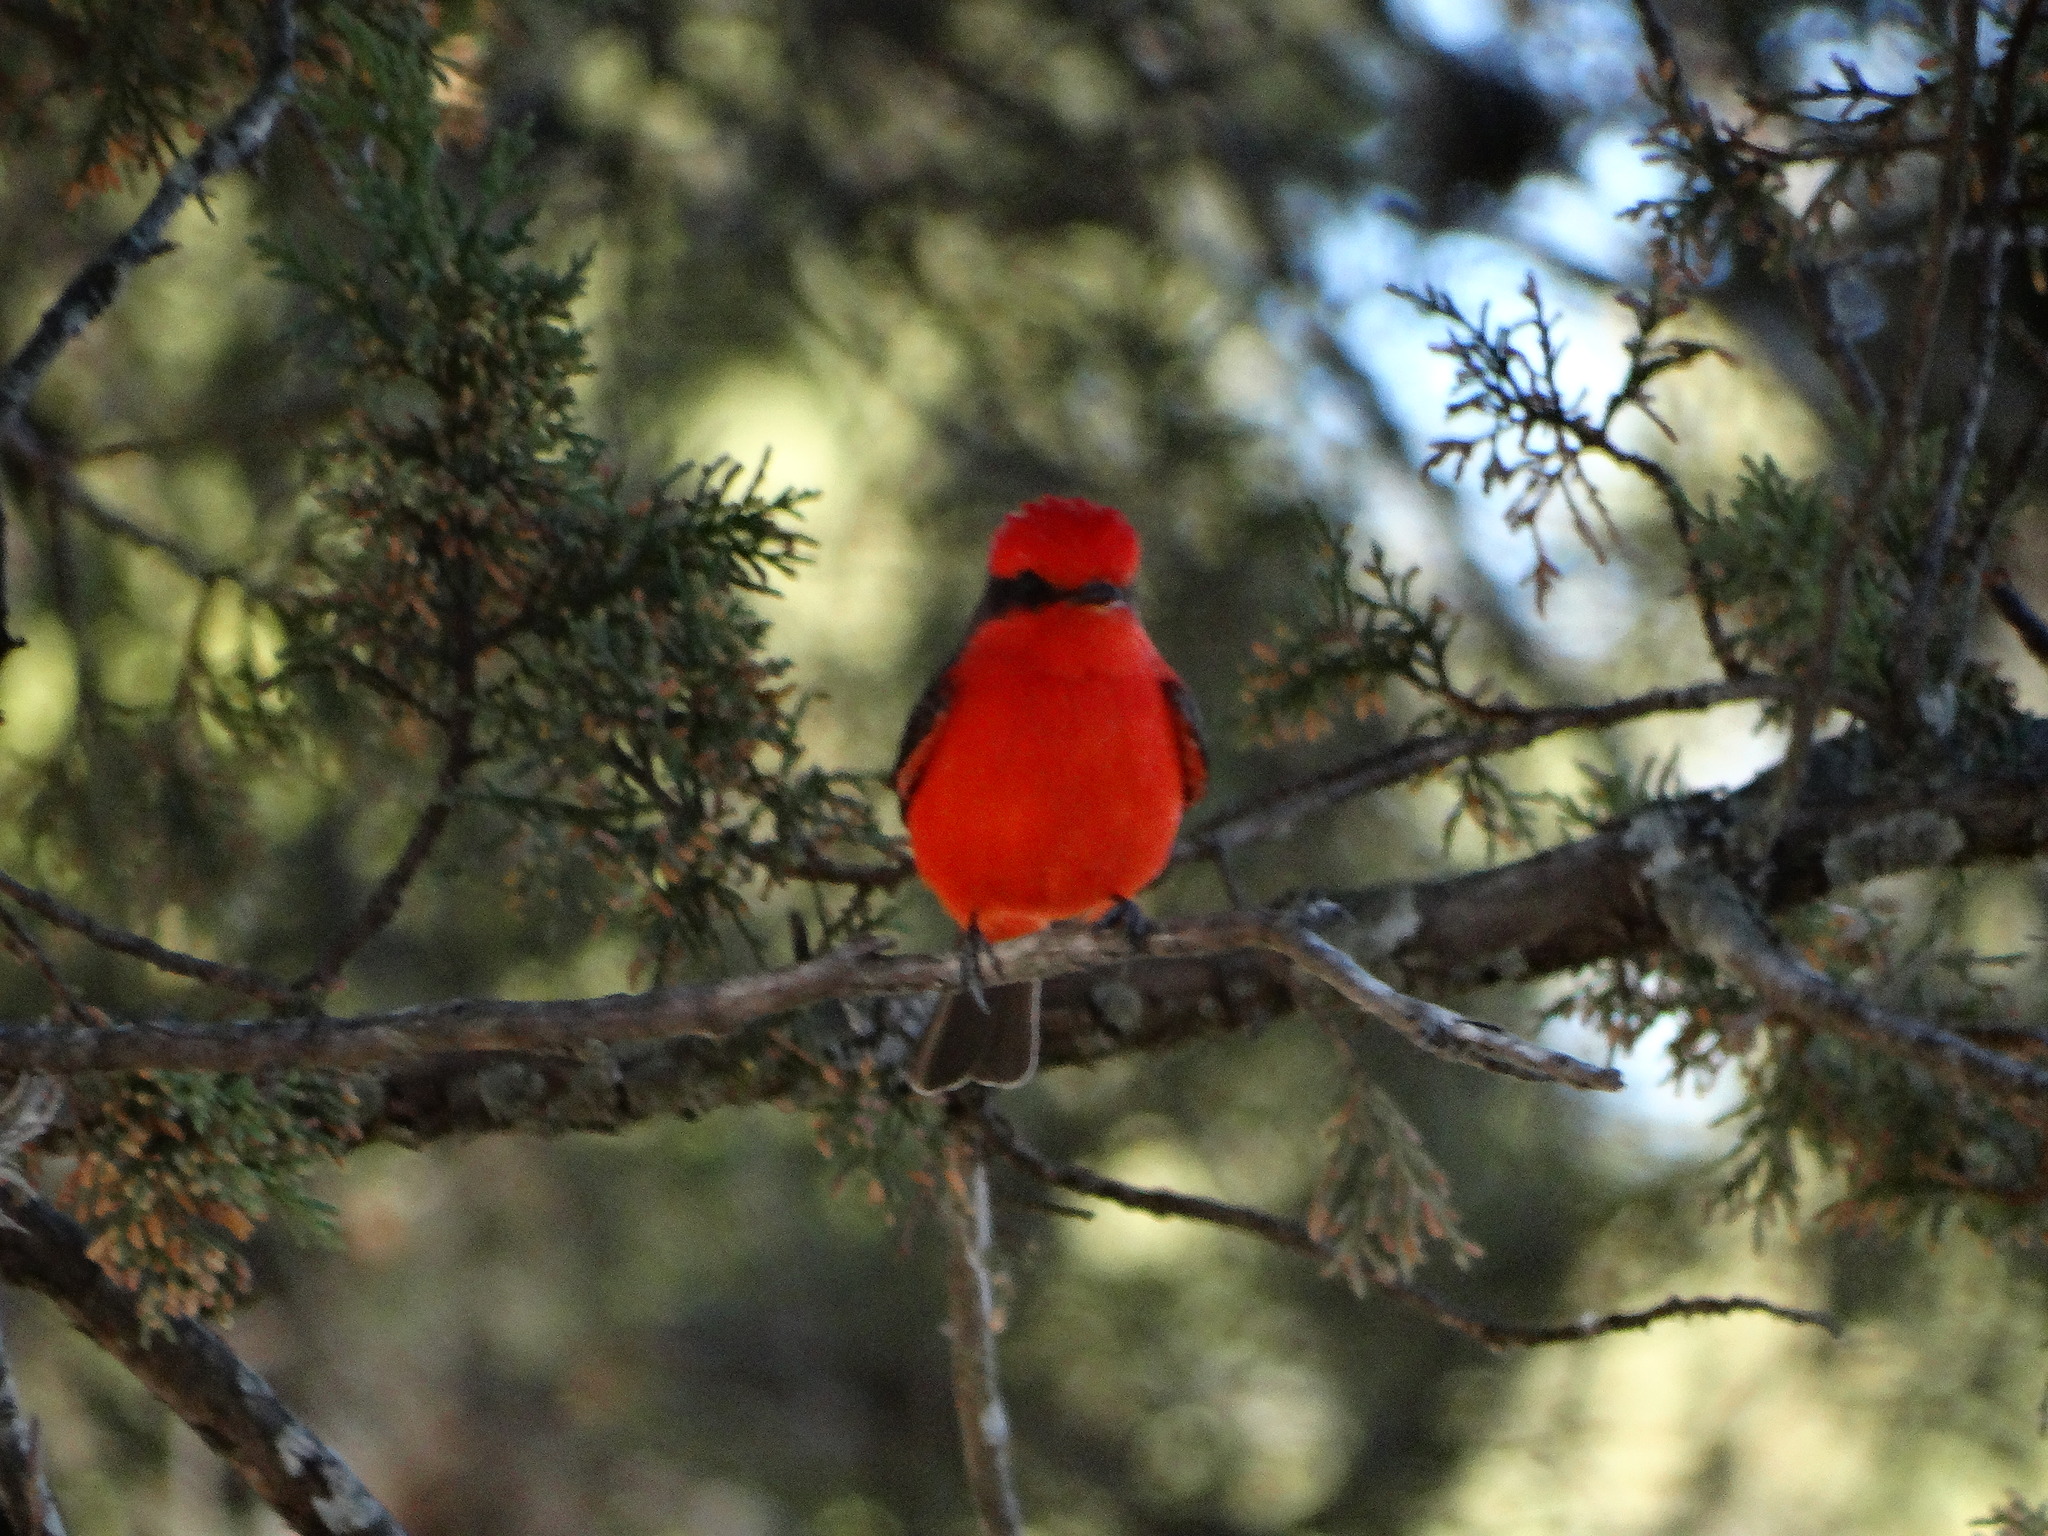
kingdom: Animalia
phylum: Chordata
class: Aves
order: Passeriformes
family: Tyrannidae
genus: Pyrocephalus
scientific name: Pyrocephalus rubinus
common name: Vermilion flycatcher
